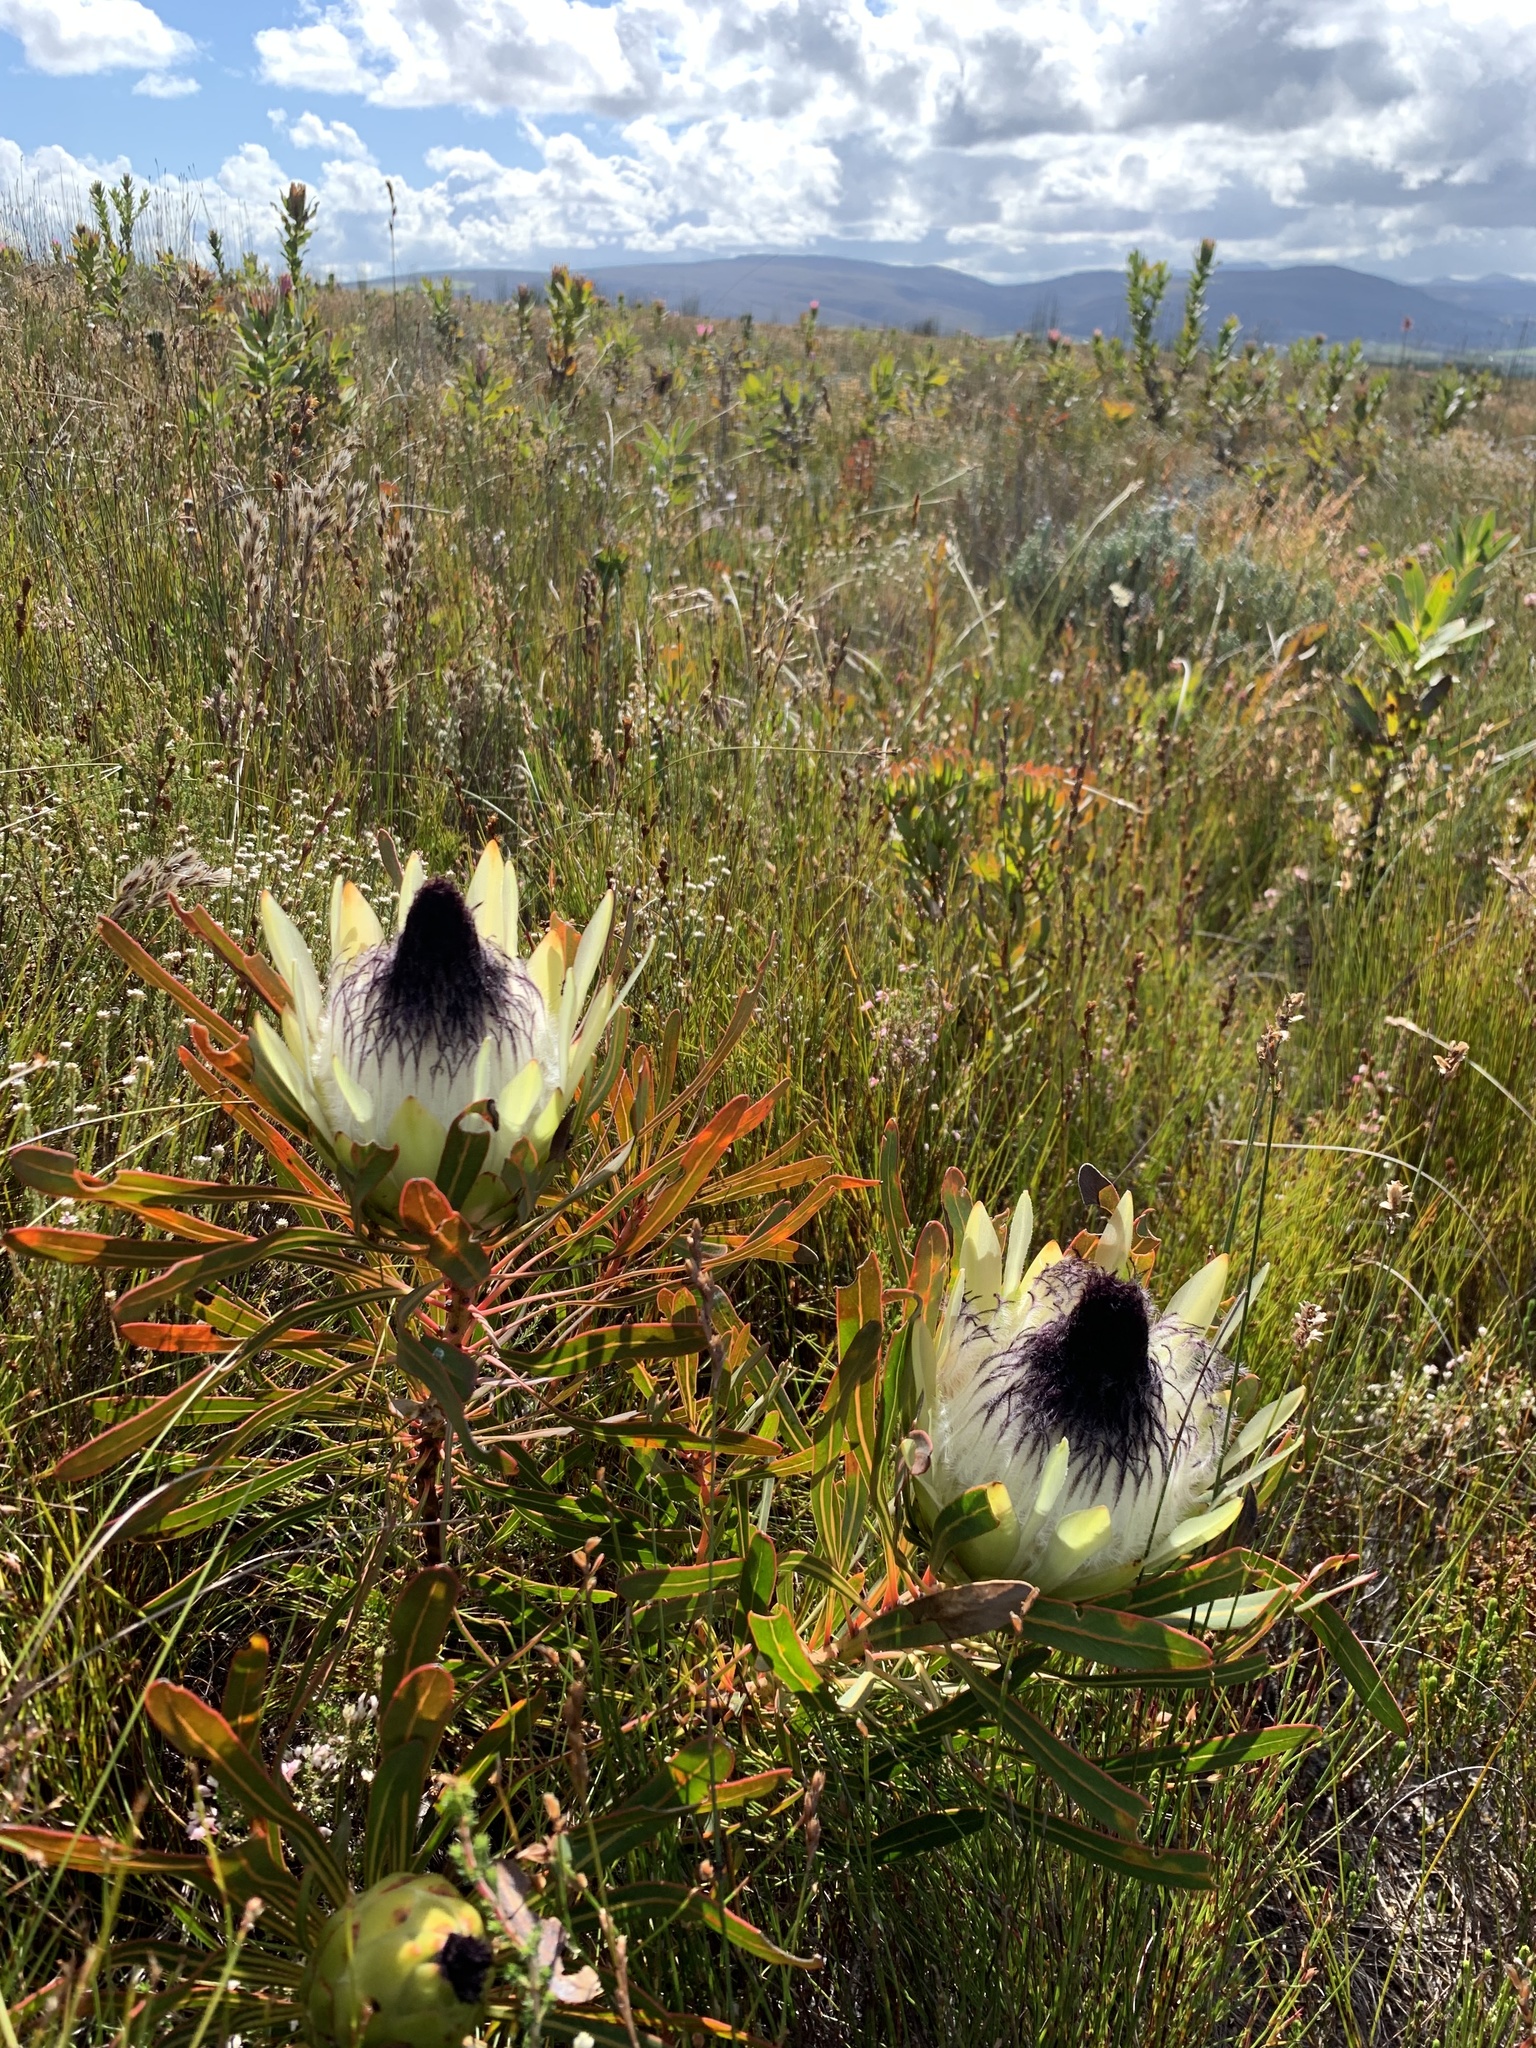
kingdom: Plantae
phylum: Tracheophyta
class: Magnoliopsida
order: Proteales
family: Proteaceae
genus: Protea
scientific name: Protea longifolia
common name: Long-leaf sugarbush
